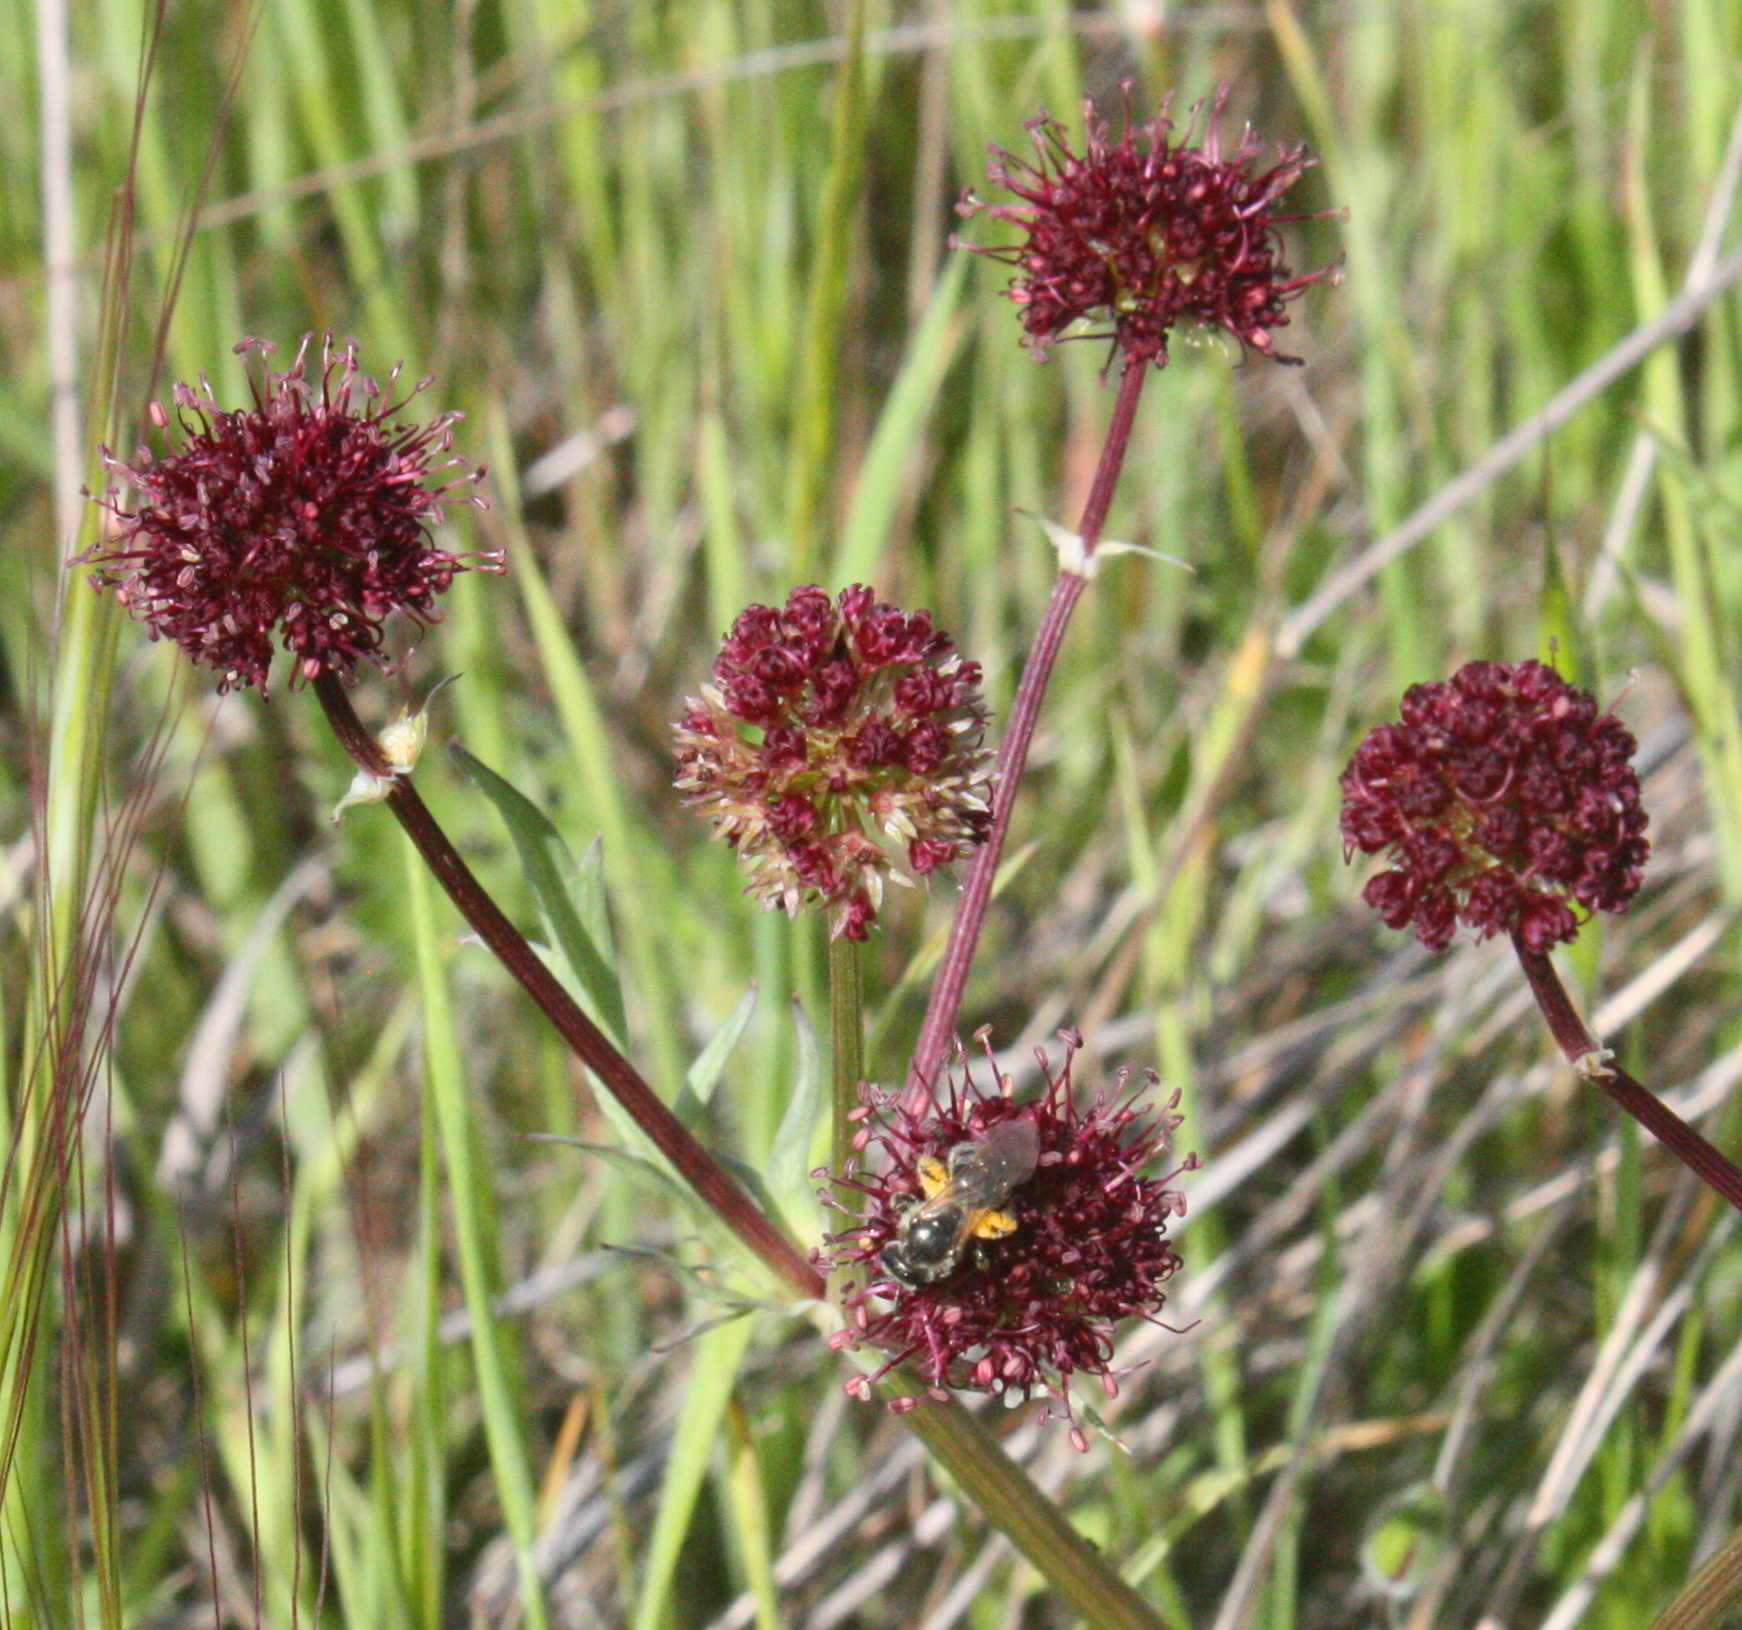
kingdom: Plantae
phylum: Tracheophyta
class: Magnoliopsida
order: Apiales
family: Apiaceae
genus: Sanicula
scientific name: Sanicula bipinnatifida
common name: Shoe-buttons
